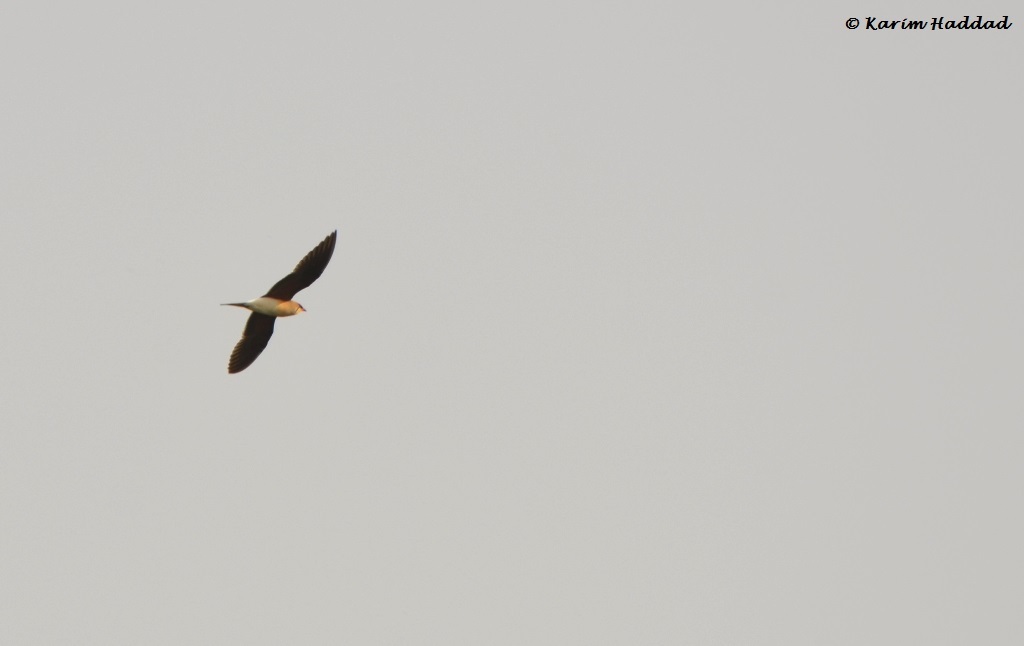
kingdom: Animalia
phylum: Chordata
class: Aves
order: Charadriiformes
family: Glareolidae
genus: Glareola
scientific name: Glareola pratincola
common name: Collared pratincole
